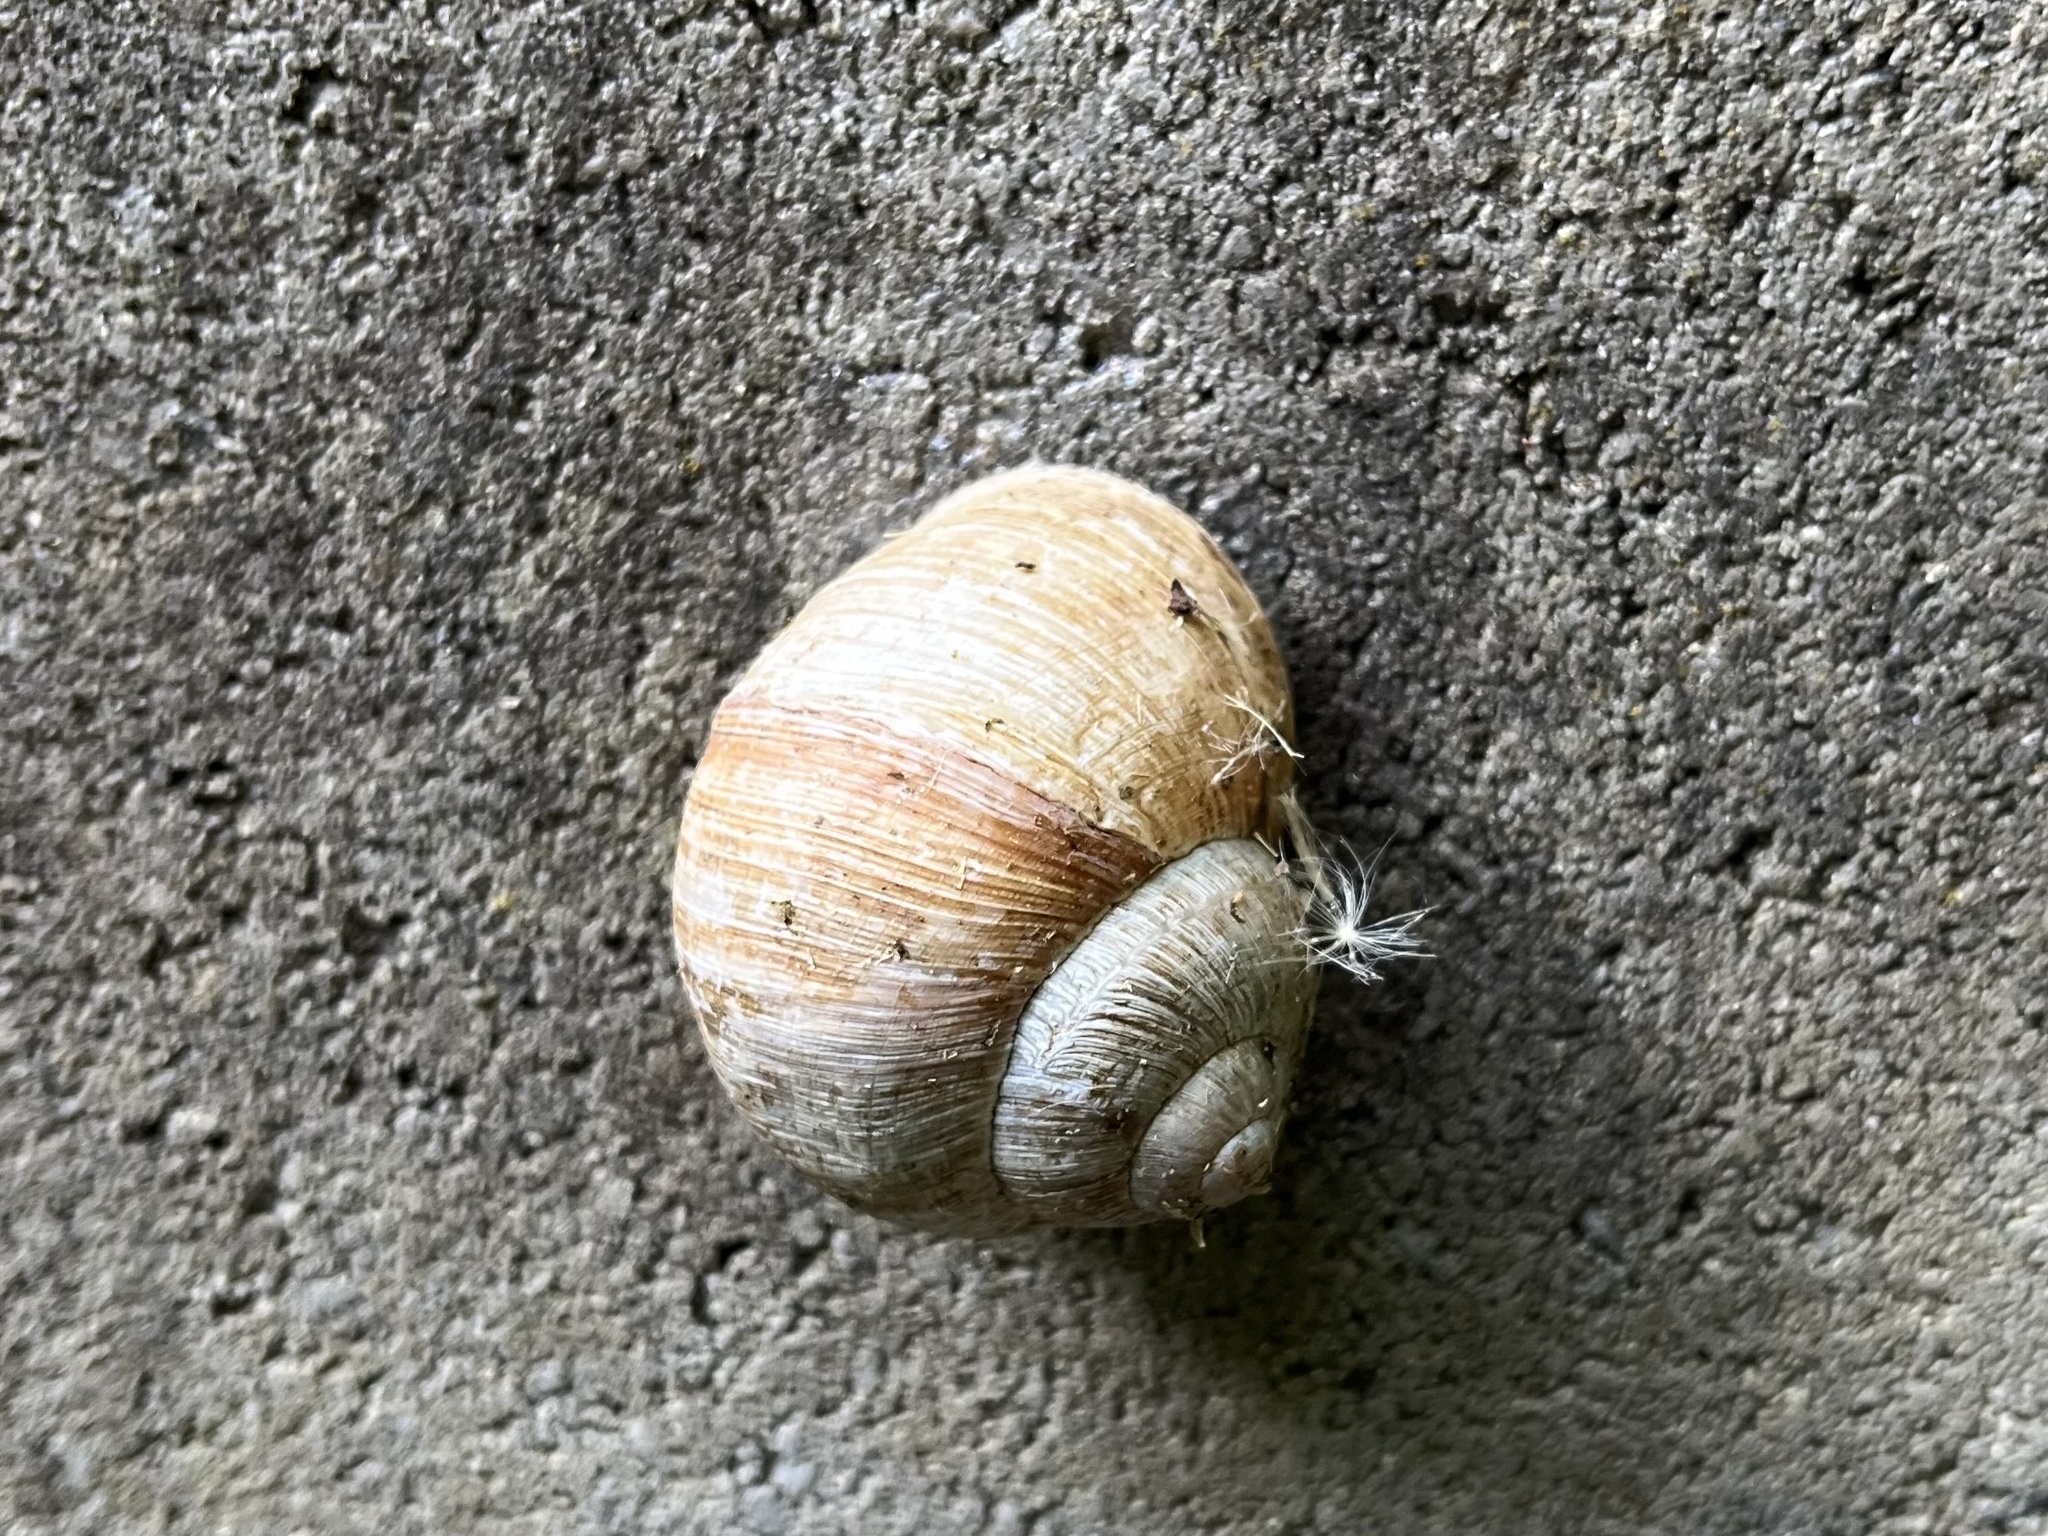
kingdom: Animalia
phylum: Mollusca
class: Gastropoda
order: Stylommatophora
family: Helicidae
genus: Helix
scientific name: Helix pomatia
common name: Roman snail
